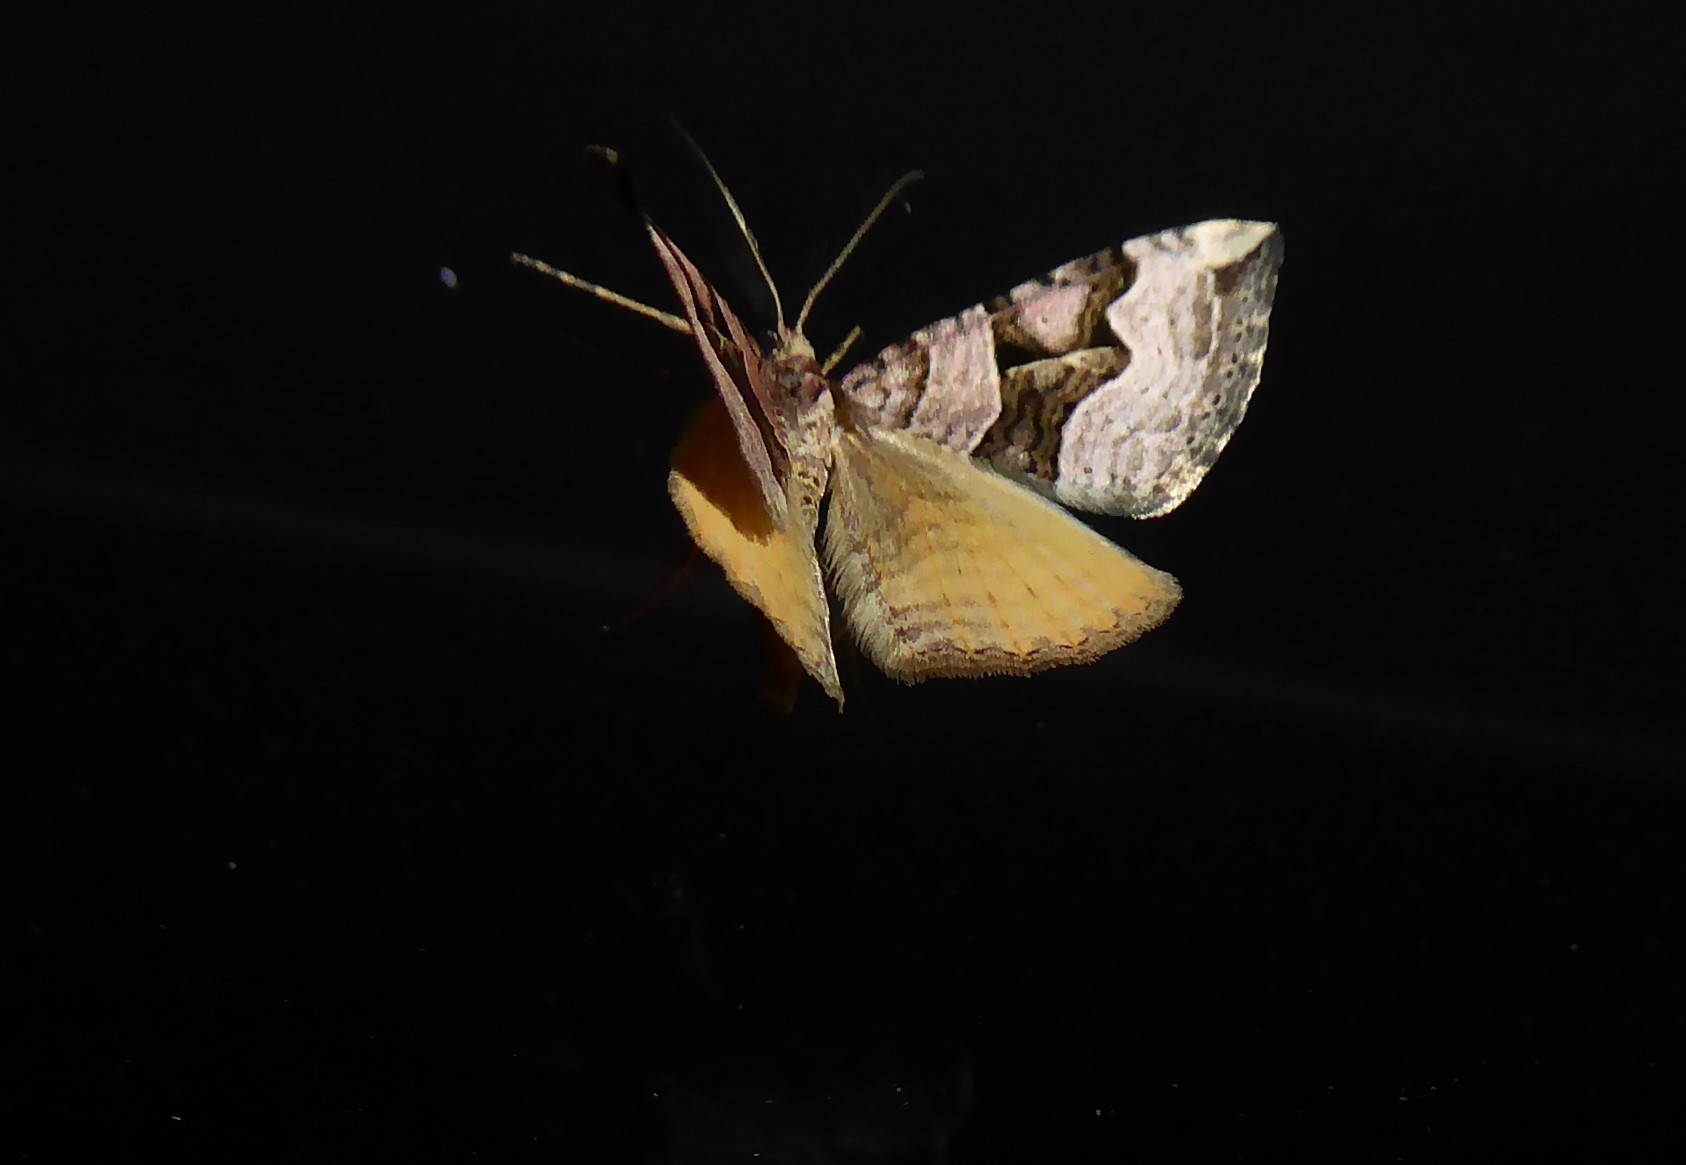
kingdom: Animalia
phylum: Arthropoda
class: Insecta
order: Lepidoptera
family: Geometridae
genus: Xanthorhoe
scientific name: Xanthorhoe semifissata
